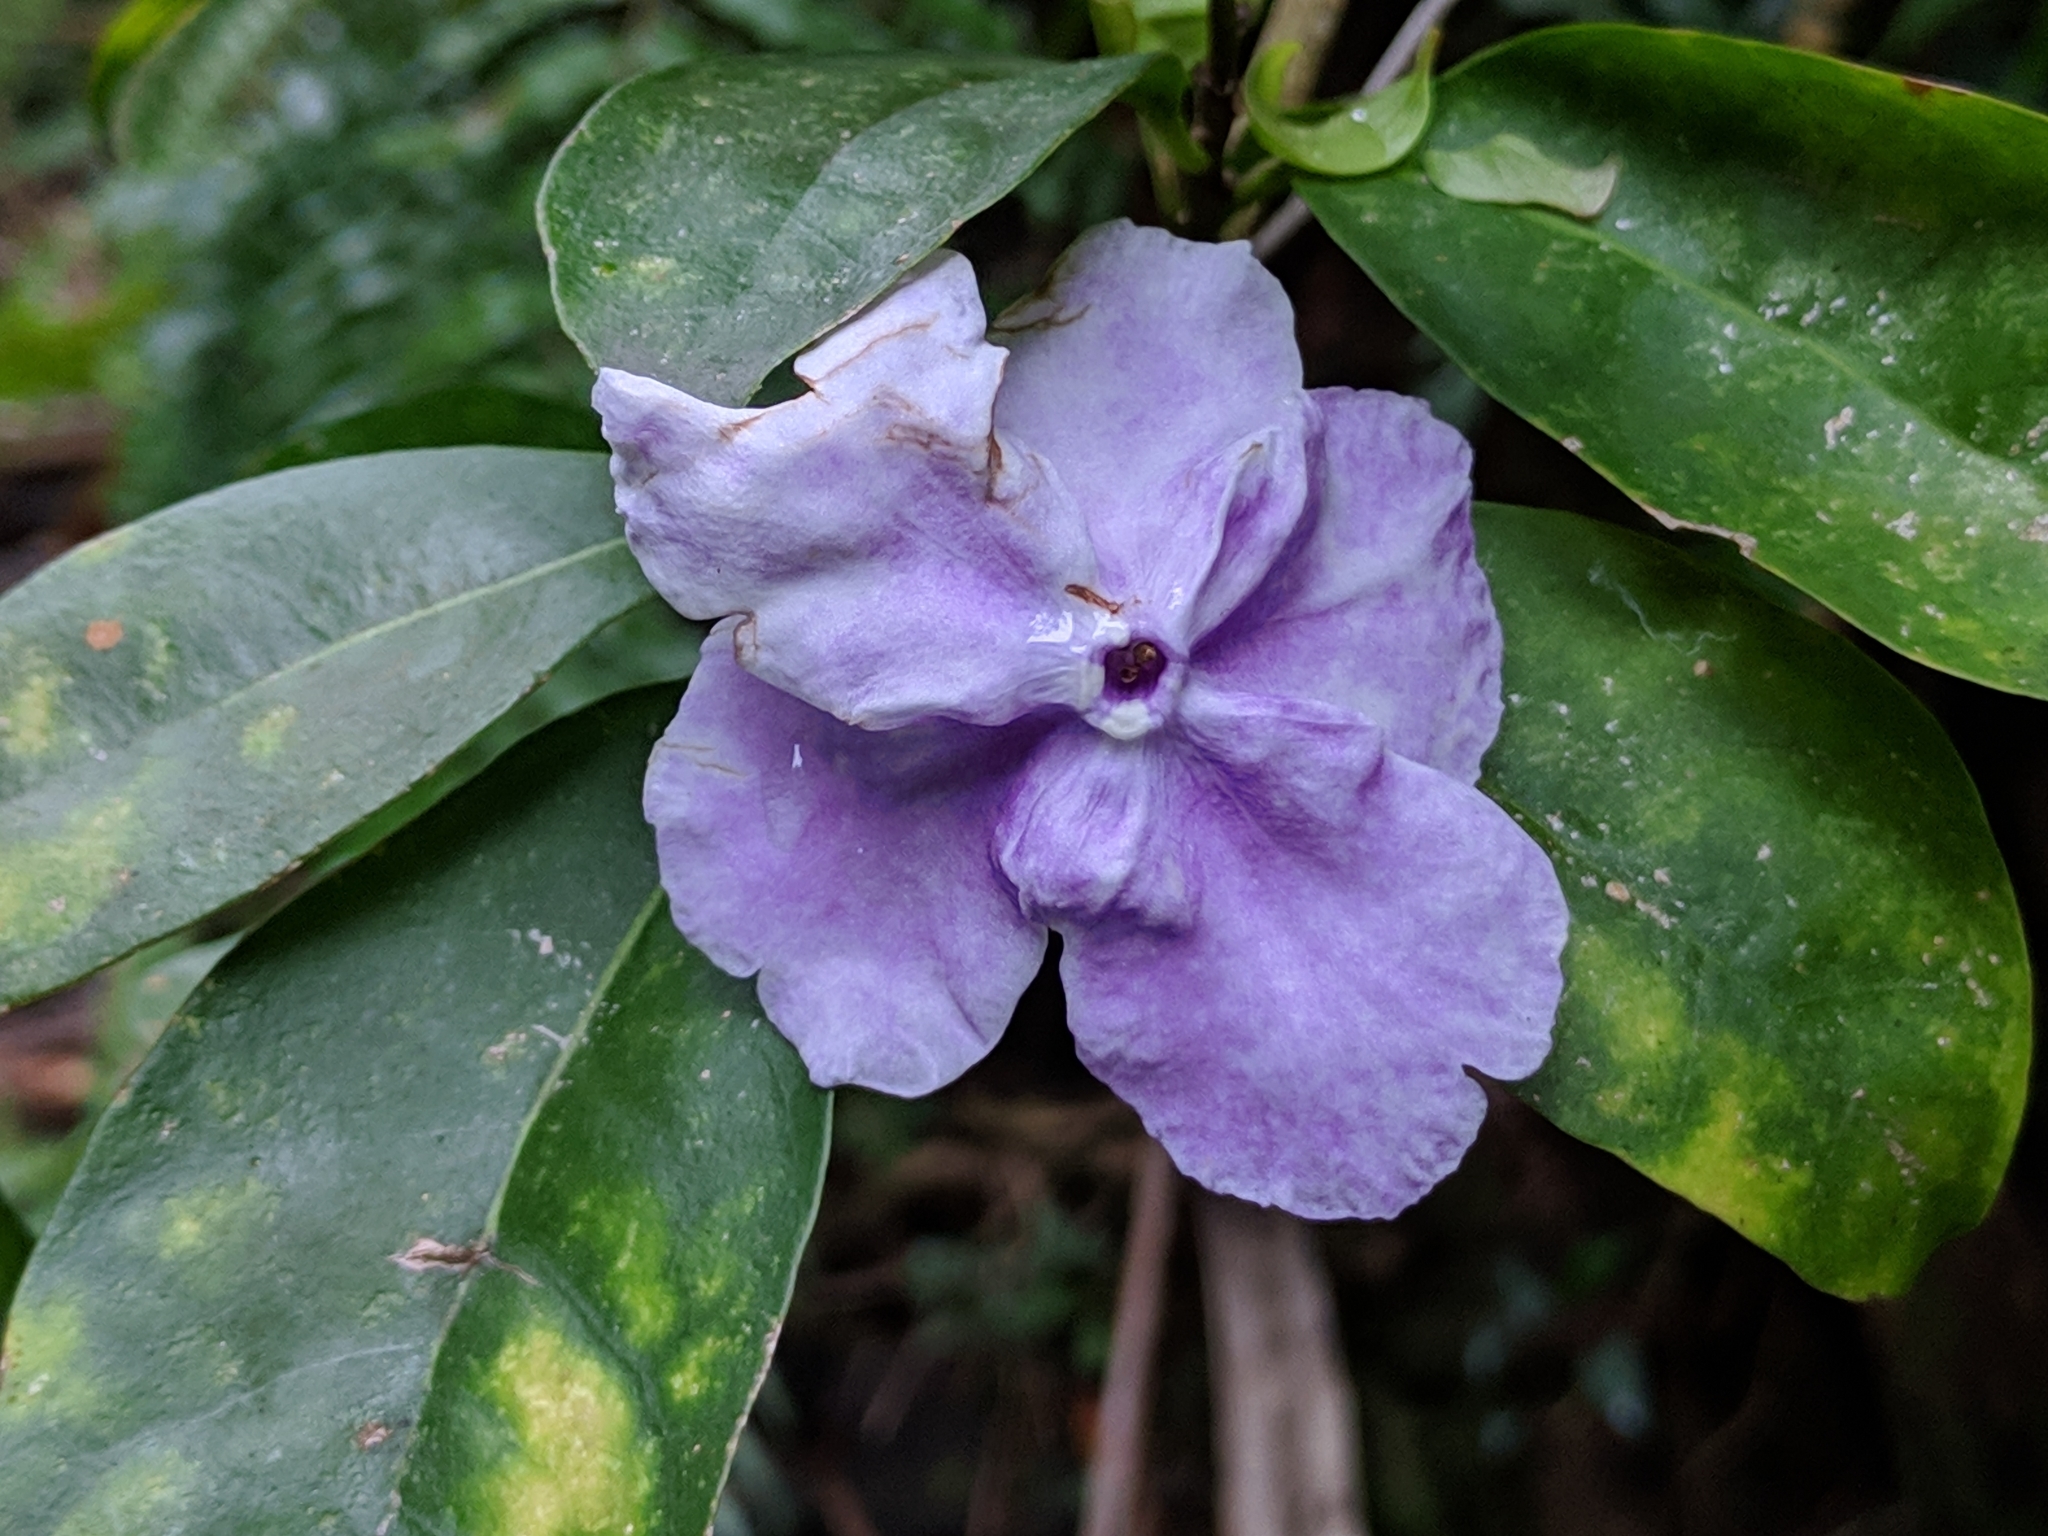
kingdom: Plantae
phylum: Tracheophyta
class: Magnoliopsida
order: Solanales
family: Solanaceae
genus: Brunfelsia
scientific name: Brunfelsia uniflora
